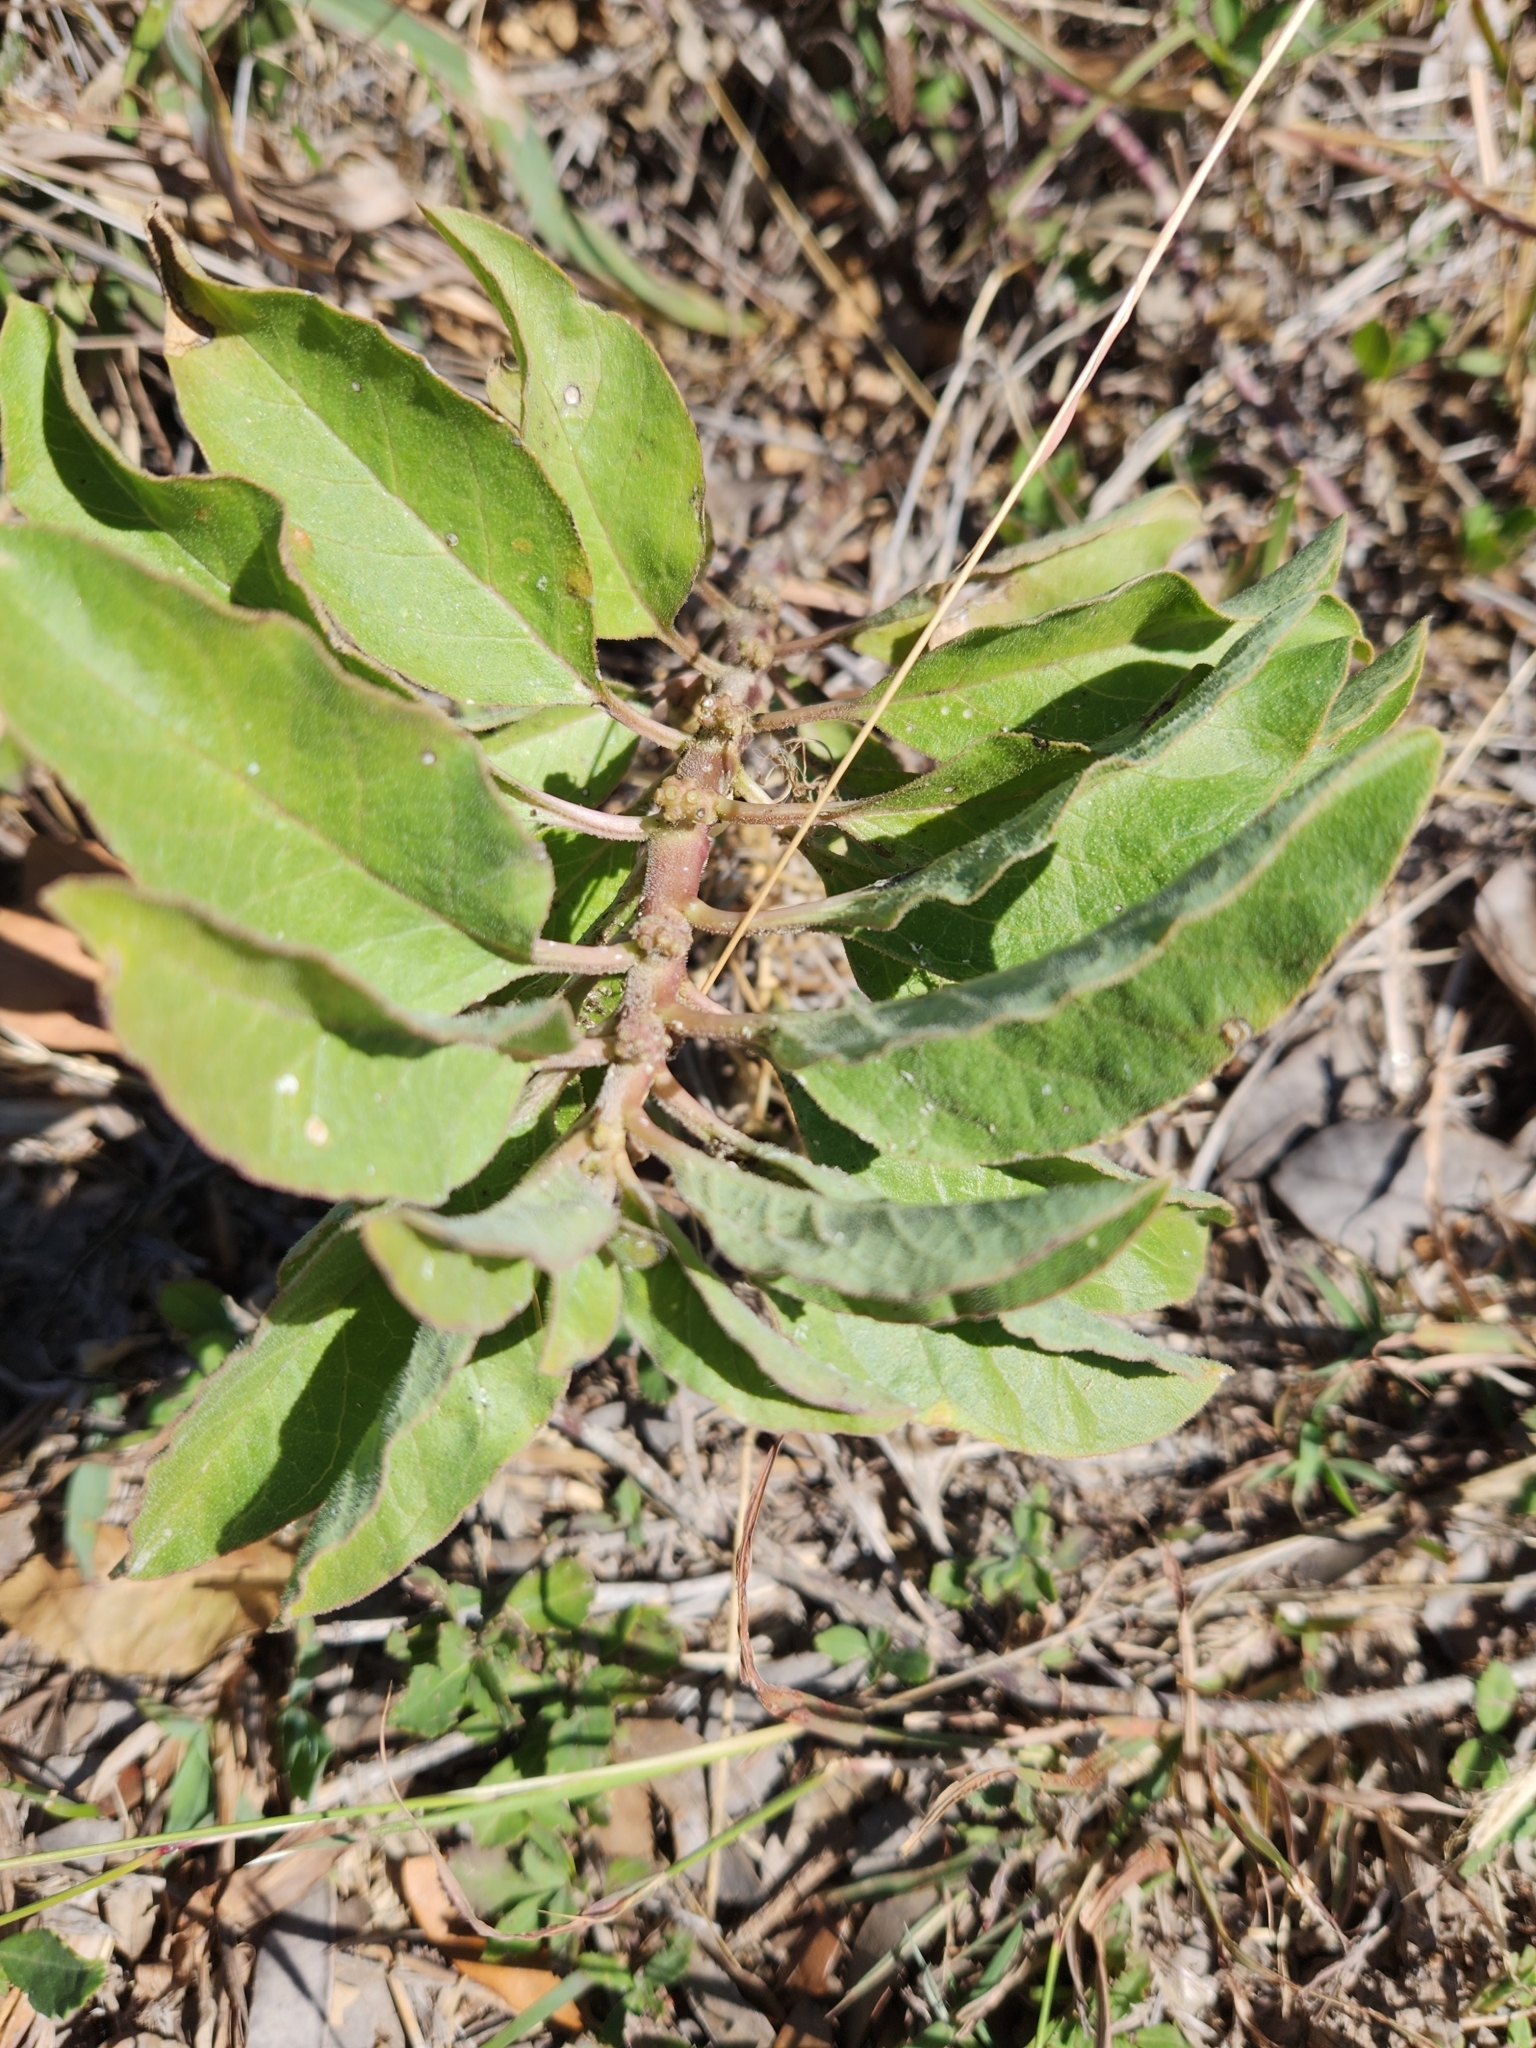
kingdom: Plantae
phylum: Tracheophyta
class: Magnoliopsida
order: Gentianales
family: Apocynaceae
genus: Asclepias
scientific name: Asclepias oenotheroides
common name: Zizotes milkweed
